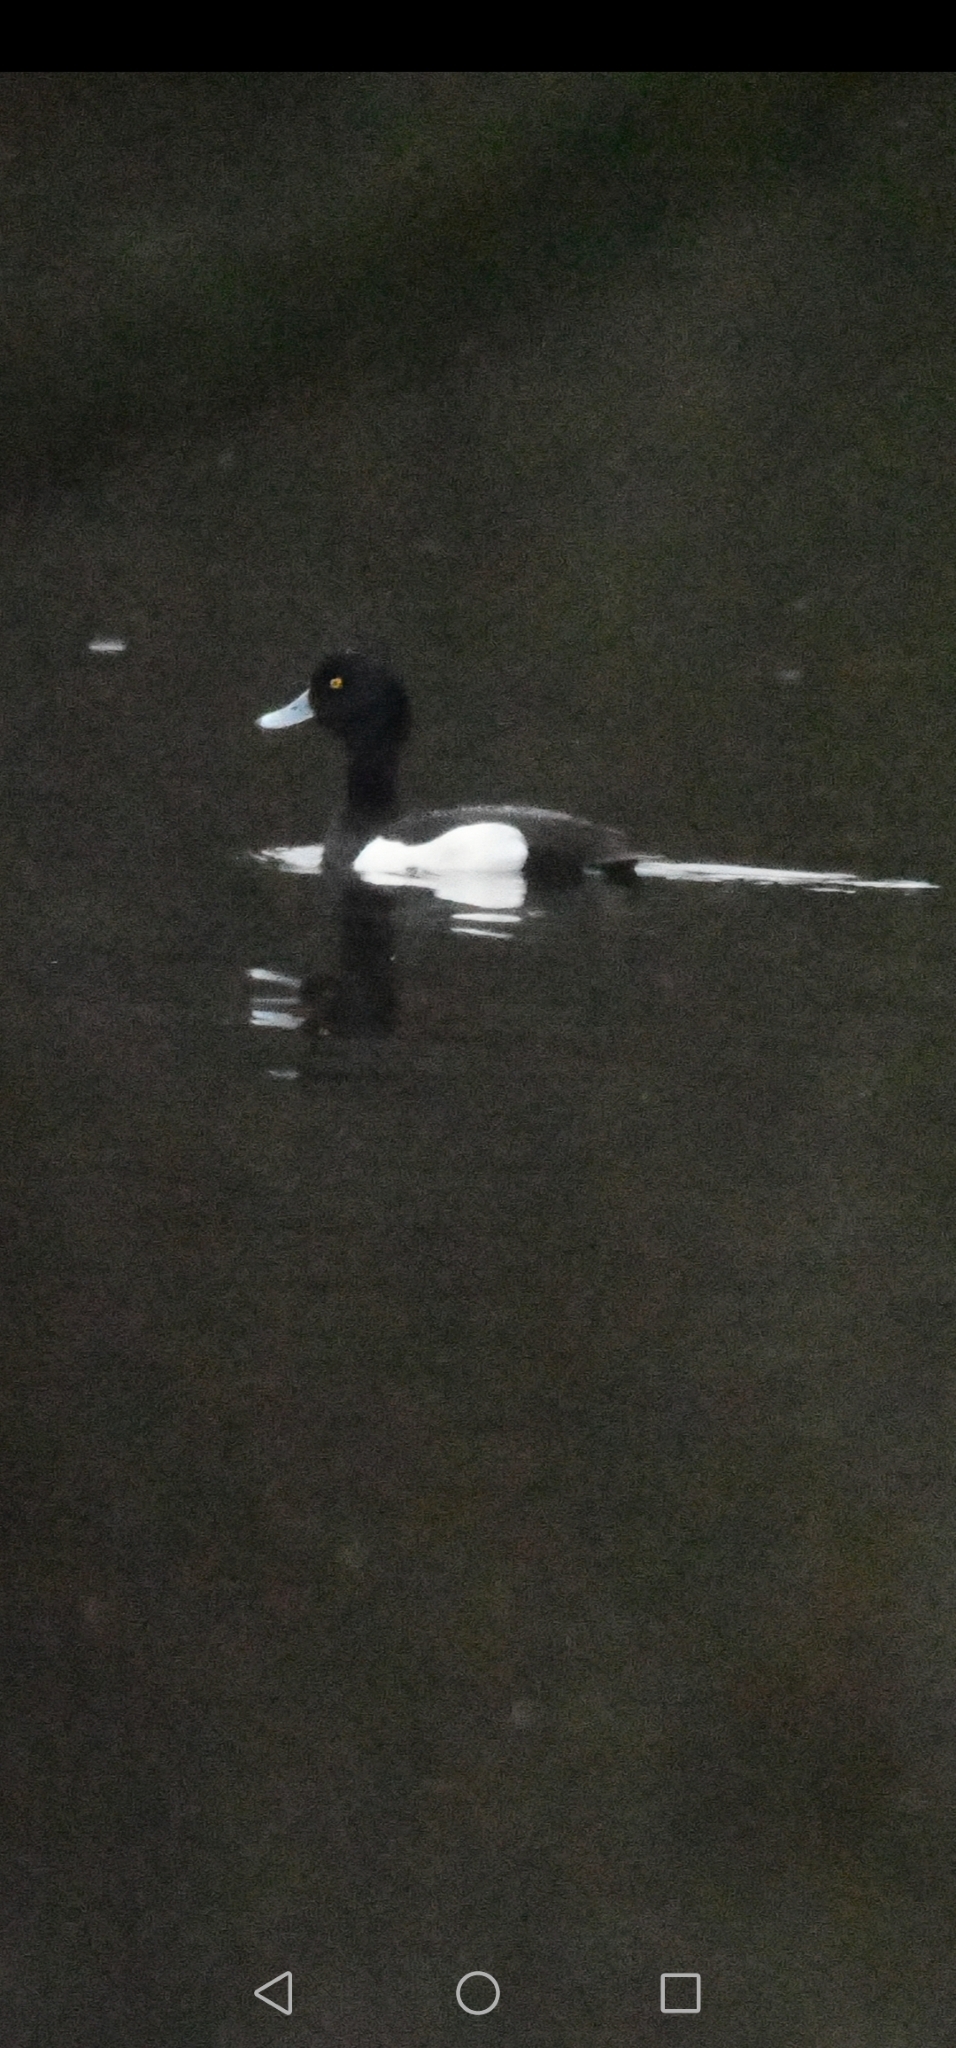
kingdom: Animalia
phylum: Chordata
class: Aves
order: Anseriformes
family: Anatidae
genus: Aythya
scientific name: Aythya fuligula
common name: Tufted duck
